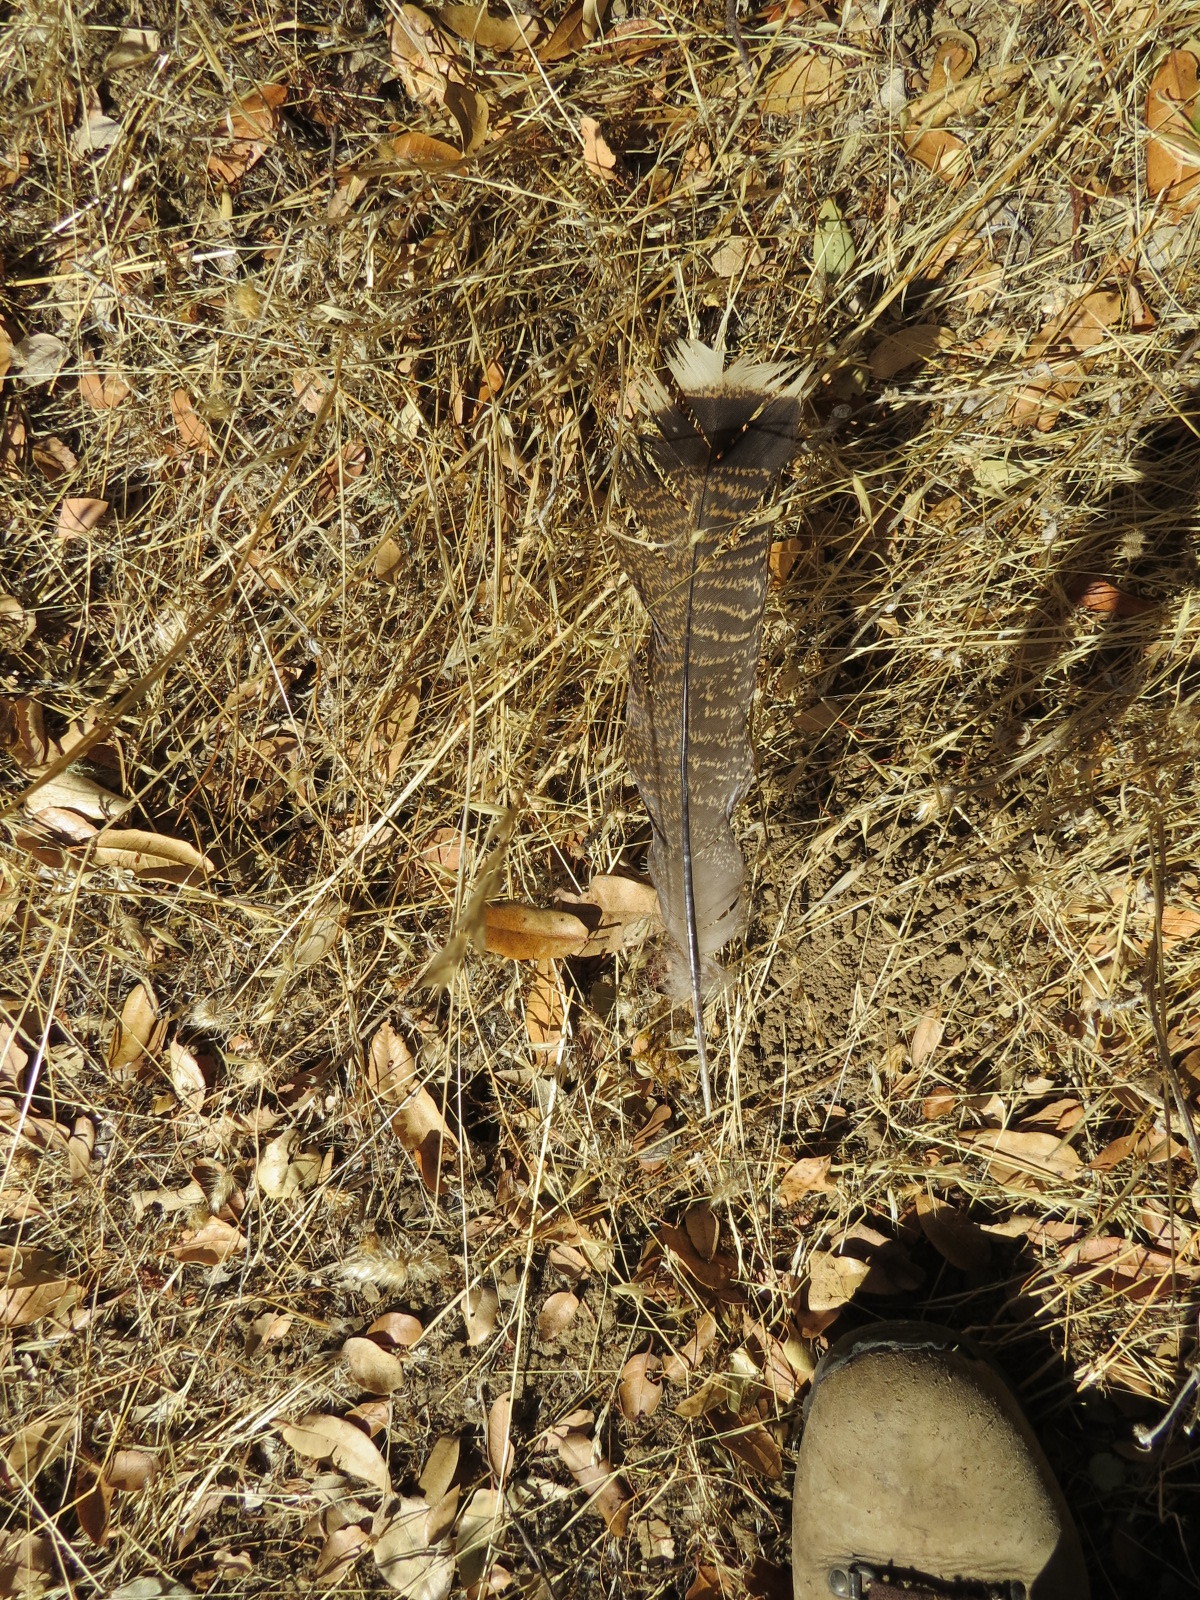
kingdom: Animalia
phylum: Chordata
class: Aves
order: Galliformes
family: Phasianidae
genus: Meleagris
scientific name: Meleagris gallopavo
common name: Wild turkey
